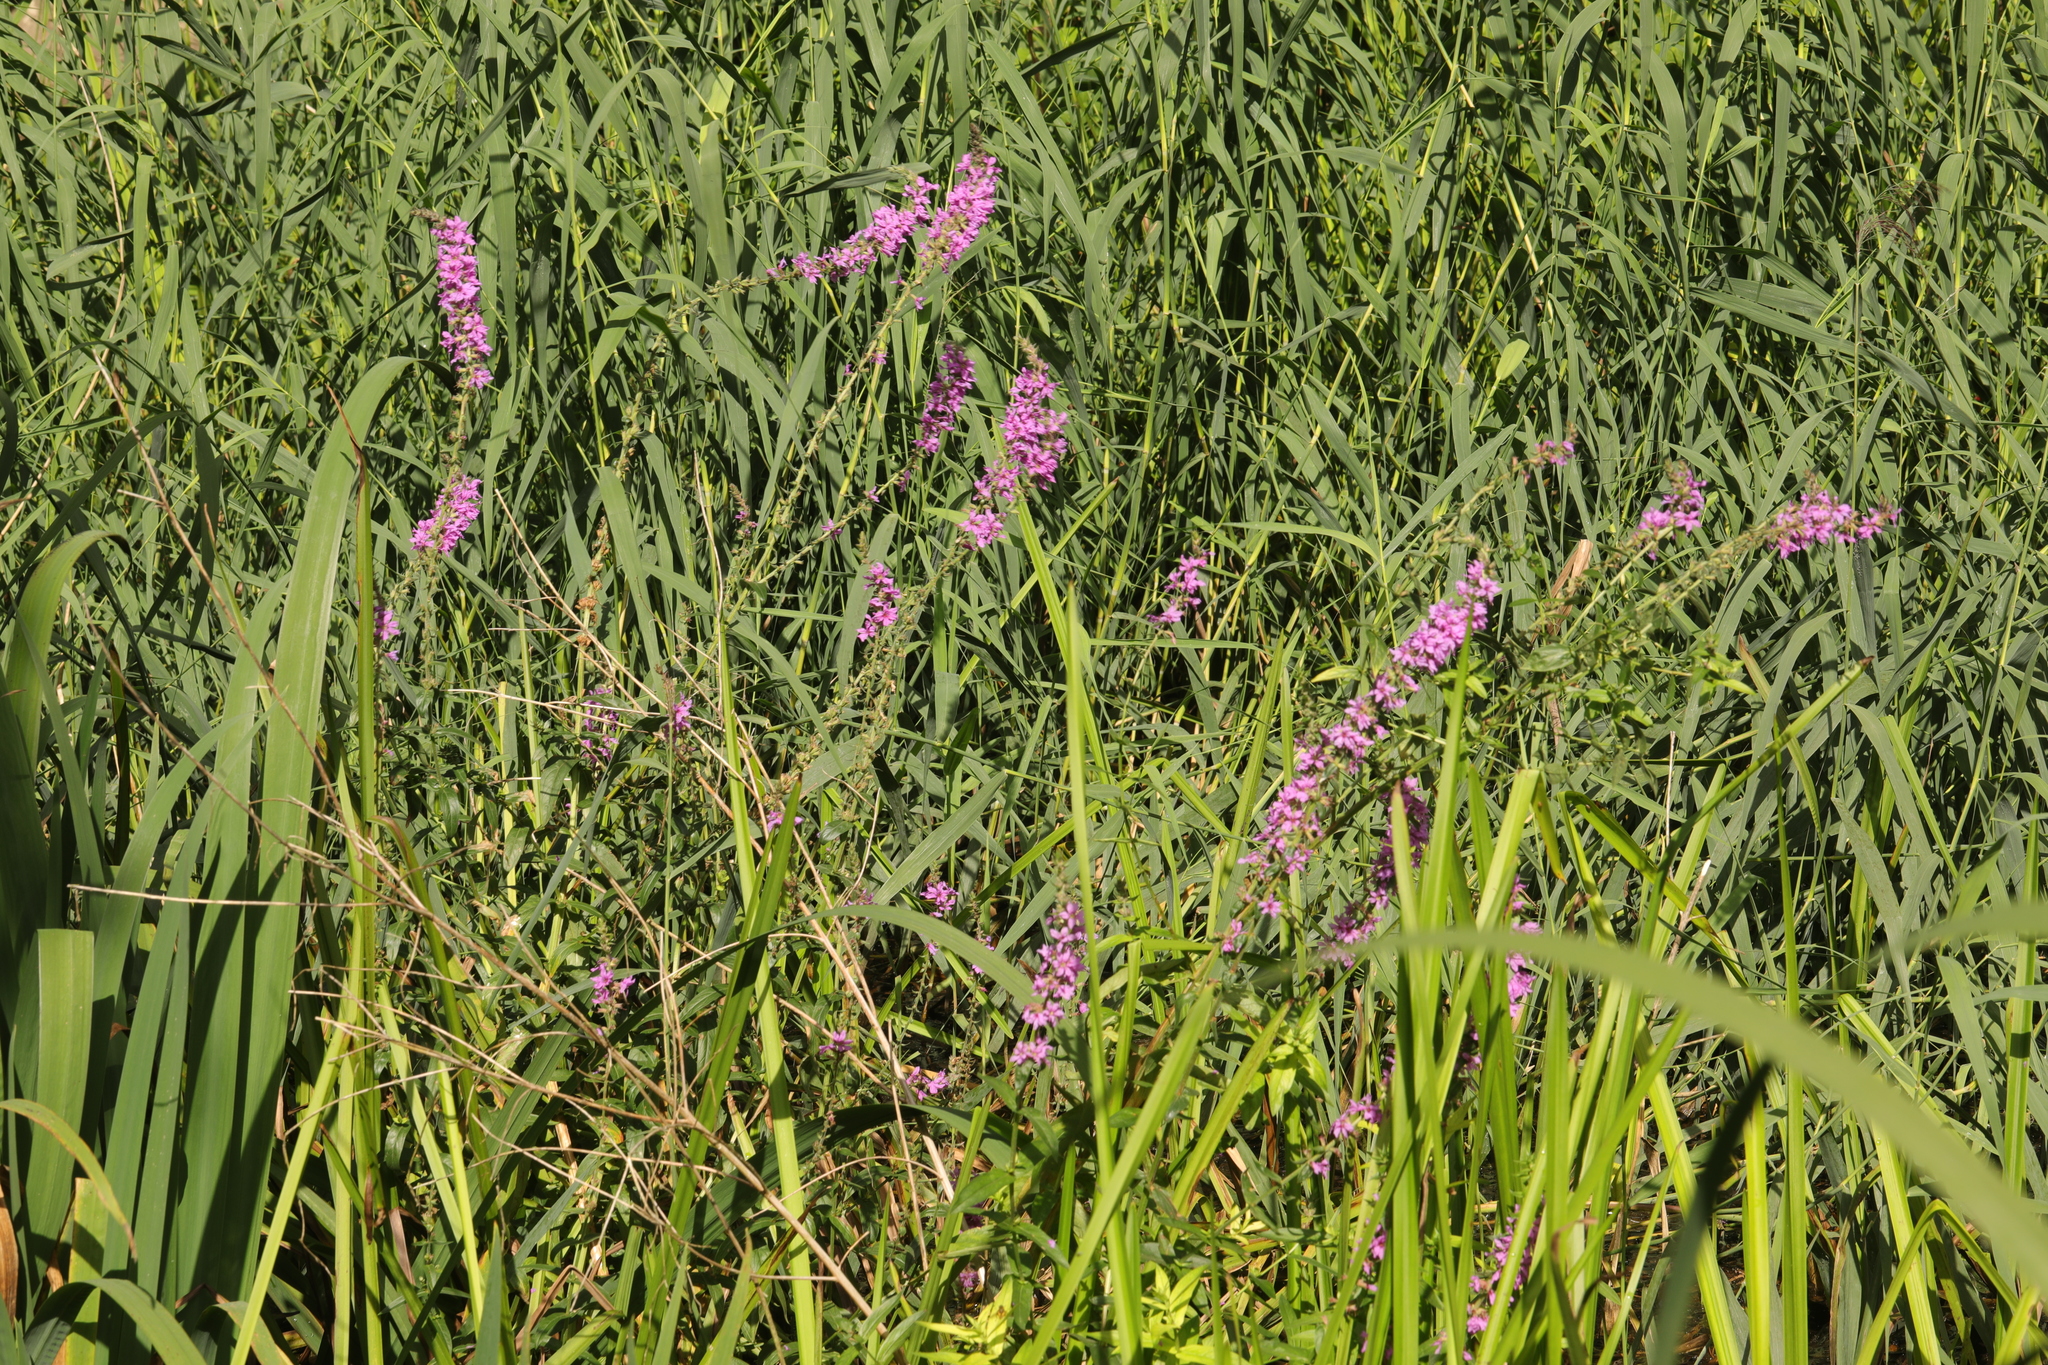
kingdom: Plantae
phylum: Tracheophyta
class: Magnoliopsida
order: Myrtales
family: Lythraceae
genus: Lythrum
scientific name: Lythrum salicaria
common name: Purple loosestrife
